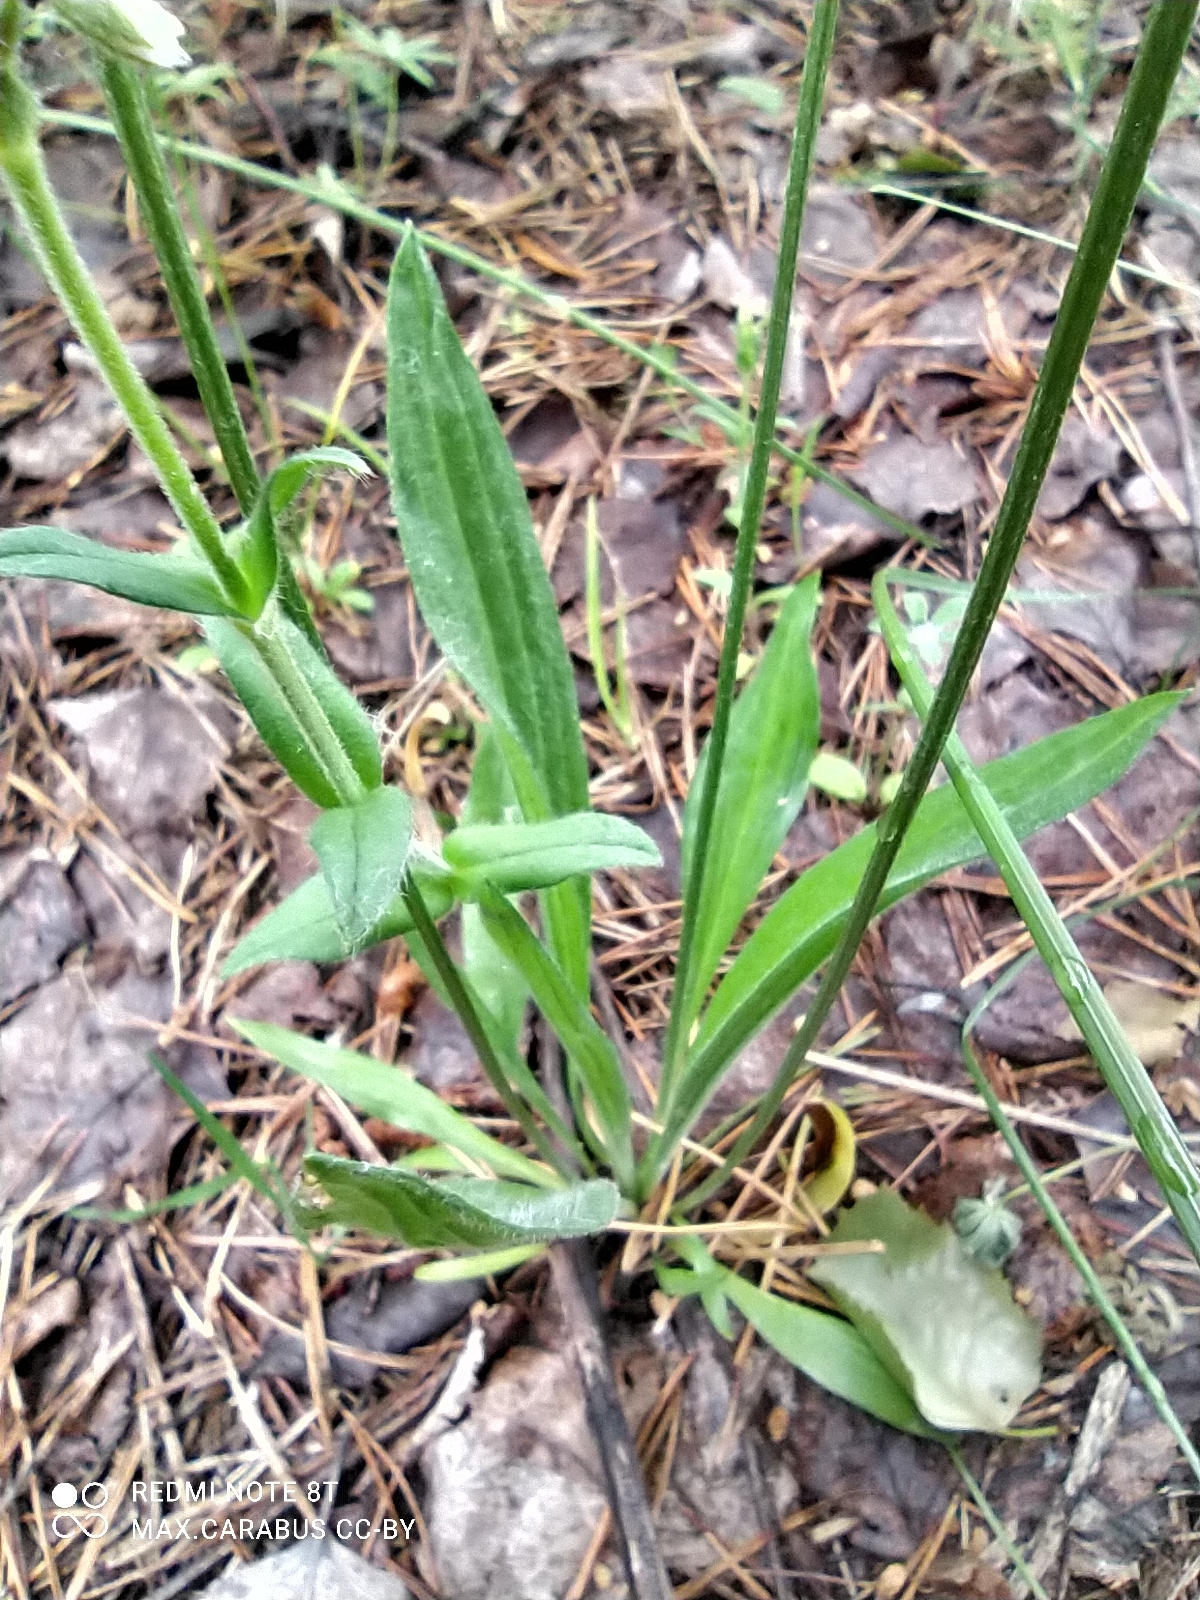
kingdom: Plantae
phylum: Tracheophyta
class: Magnoliopsida
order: Lamiales
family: Plantaginaceae
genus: Plantago
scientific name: Plantago lanceolata
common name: Ribwort plantain
